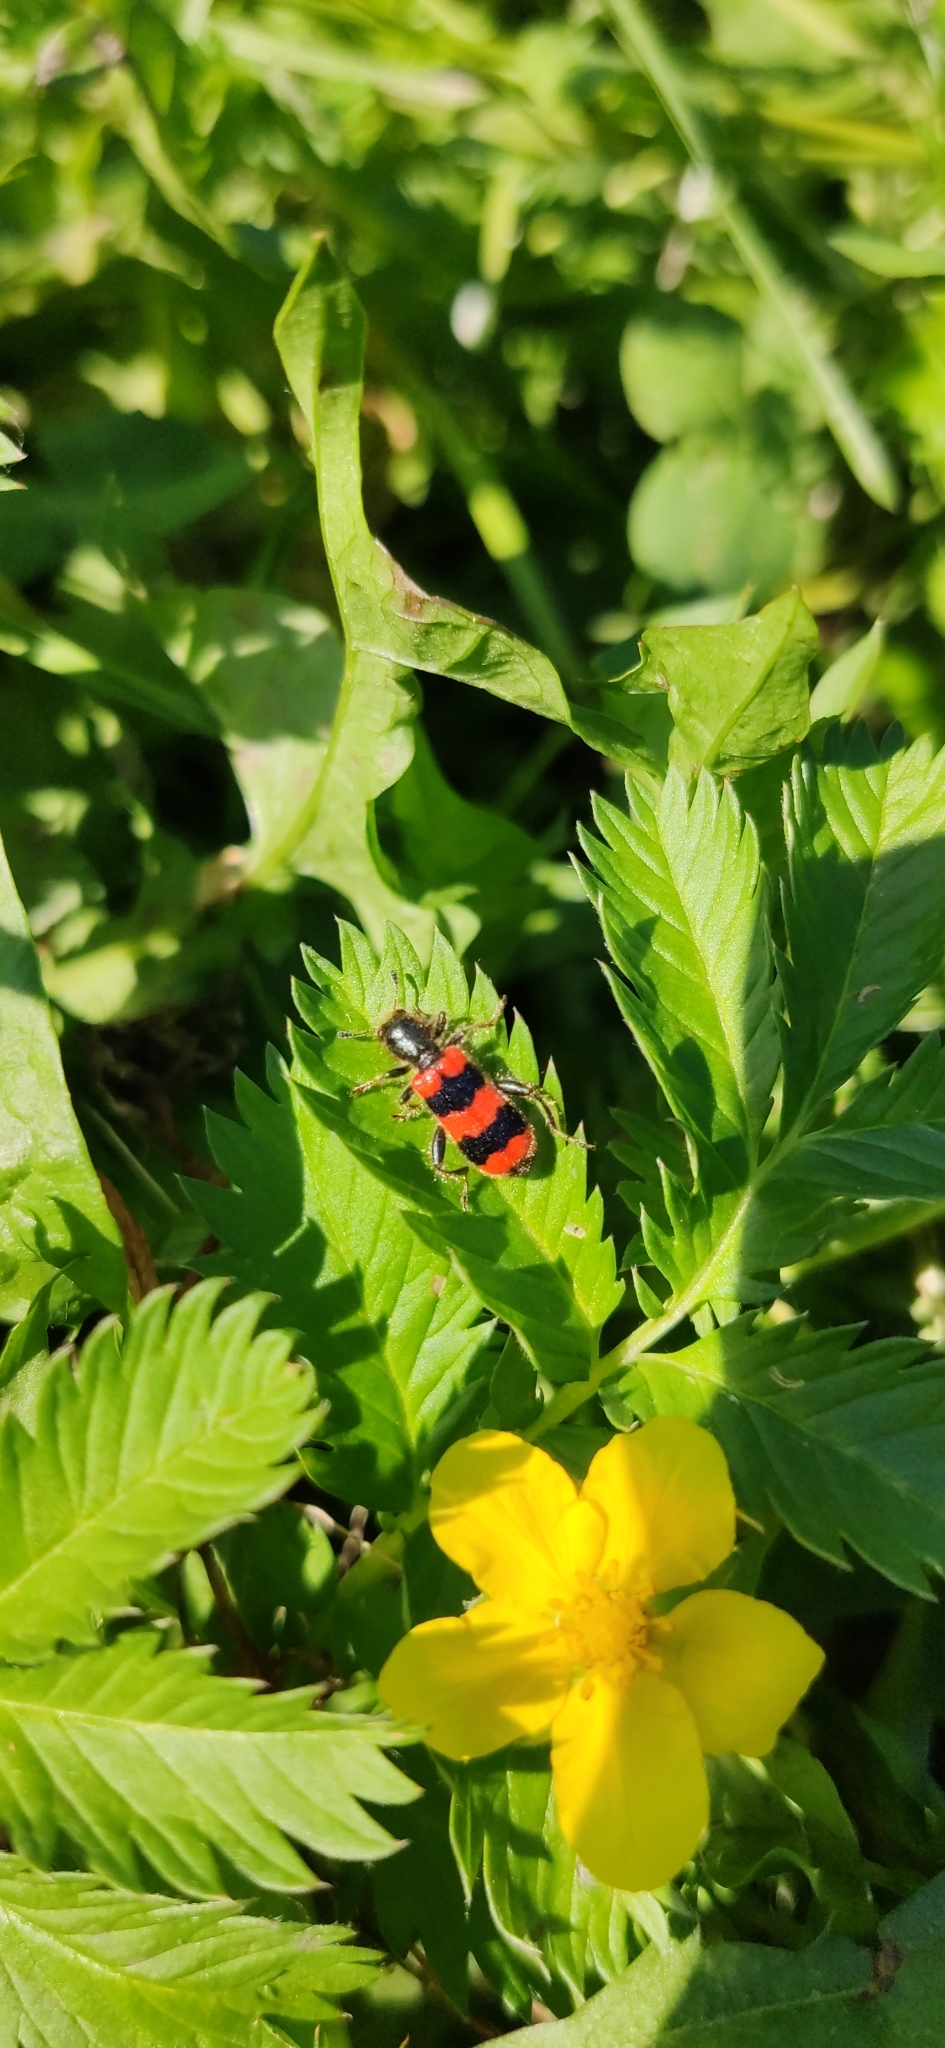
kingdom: Animalia
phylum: Arthropoda
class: Insecta
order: Coleoptera
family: Cleridae
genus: Trichodes
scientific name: Trichodes apiarius
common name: Bee-eating beetle
